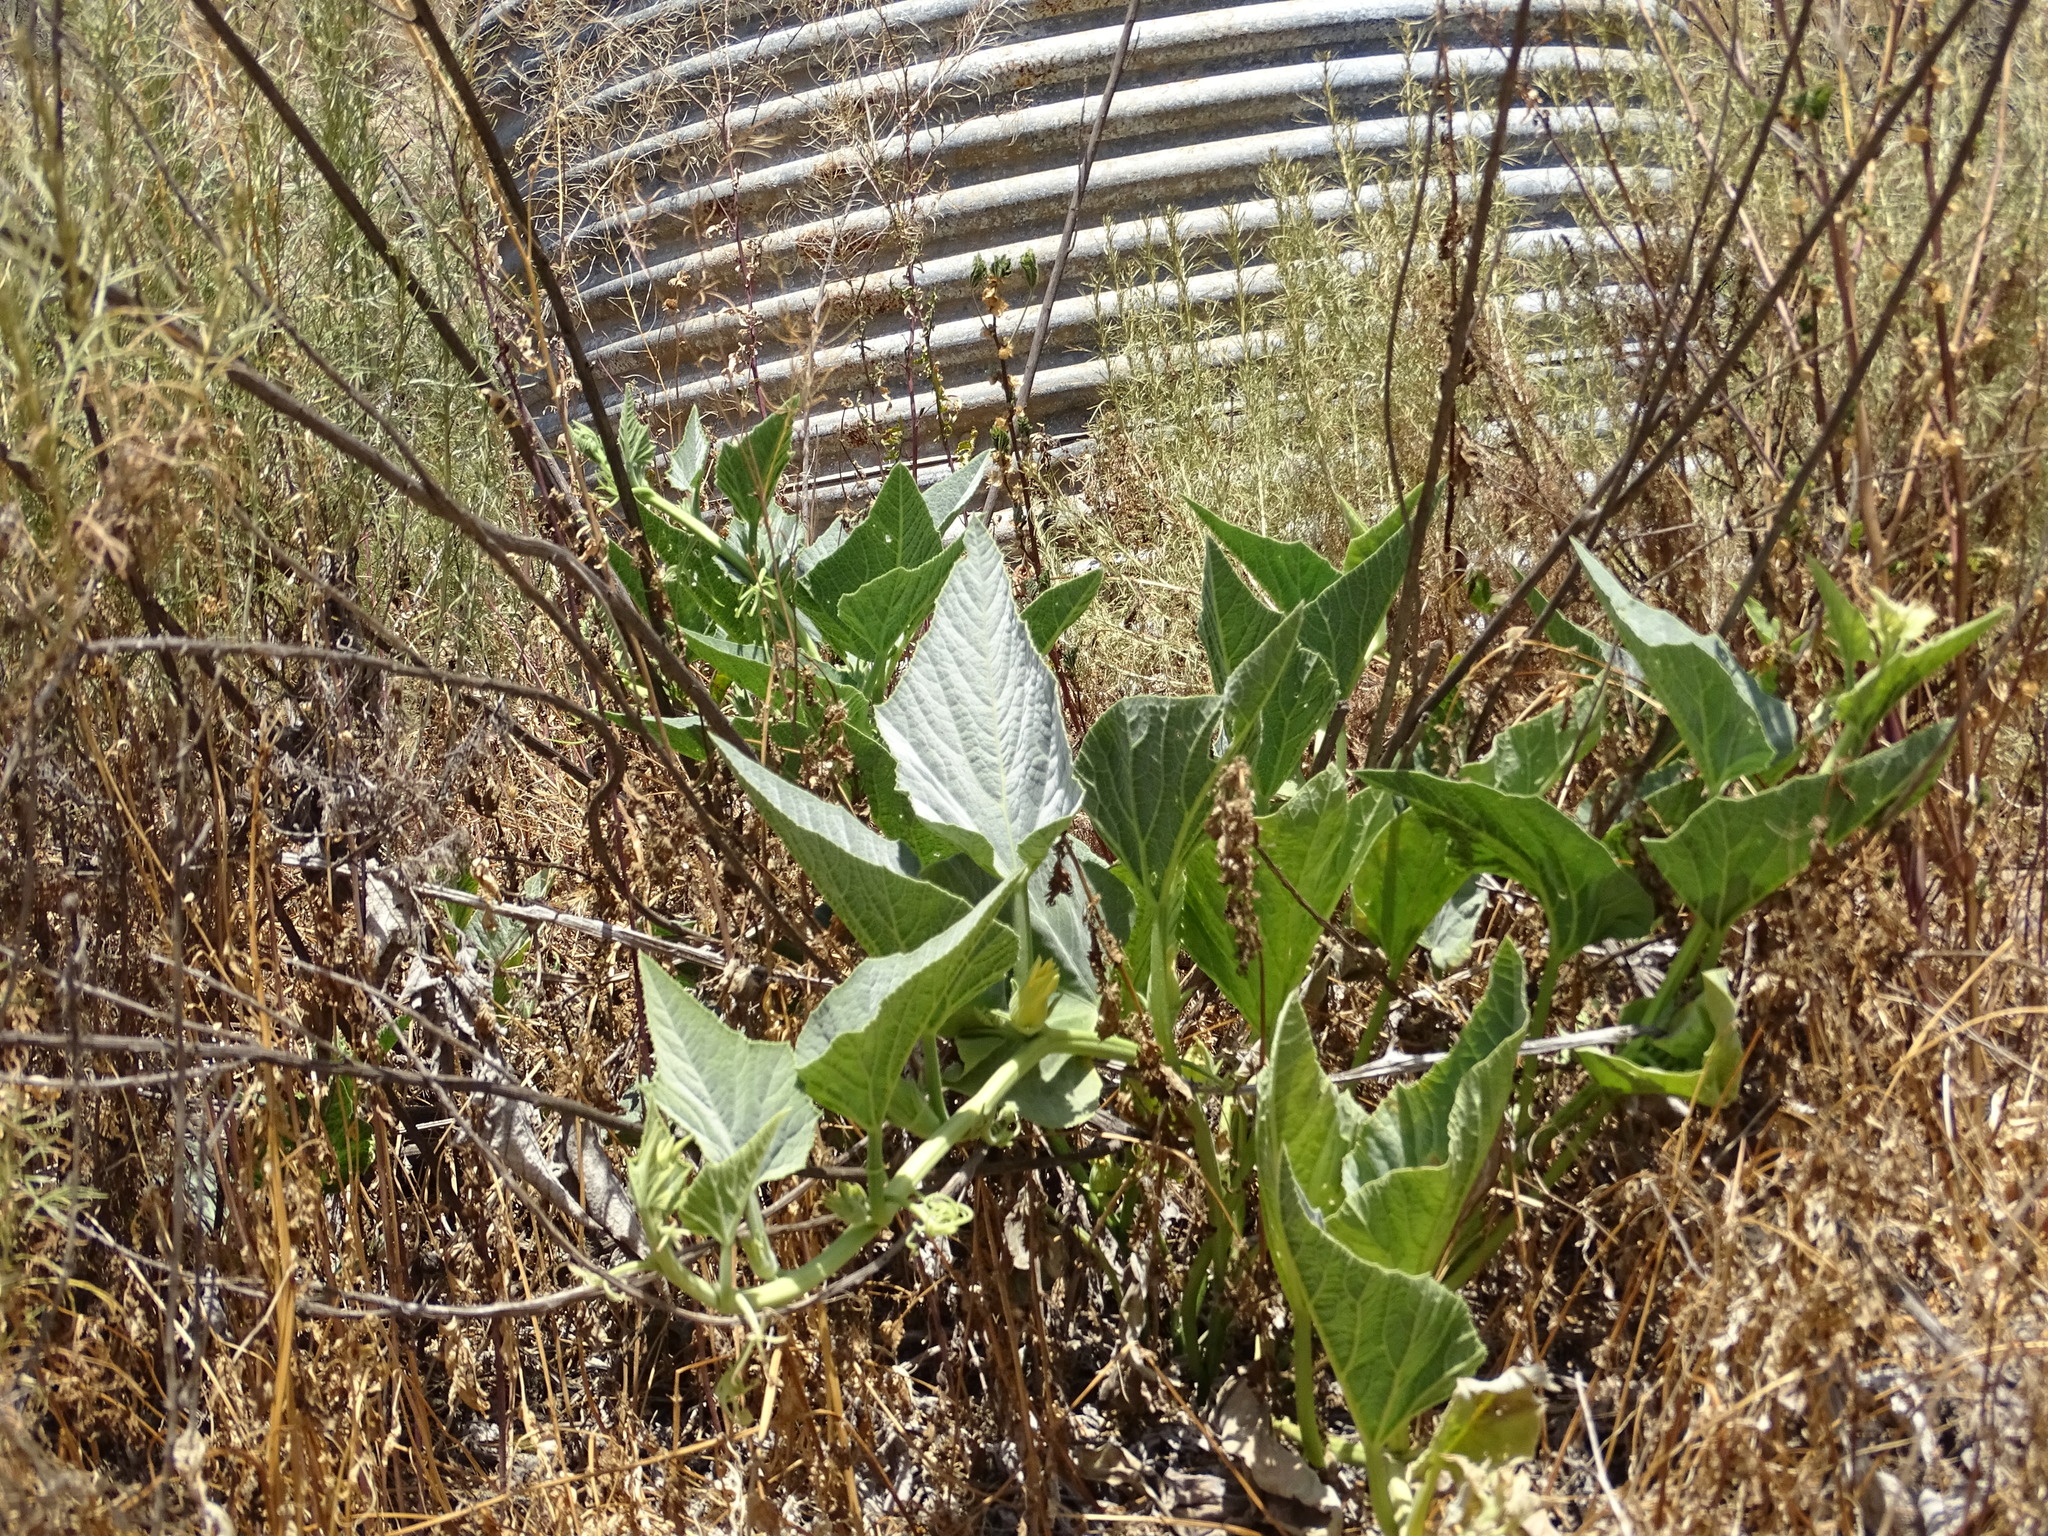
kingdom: Plantae
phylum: Tracheophyta
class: Magnoliopsida
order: Cucurbitales
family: Cucurbitaceae
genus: Cucurbita
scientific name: Cucurbita foetidissima
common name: Buffalo gourd
